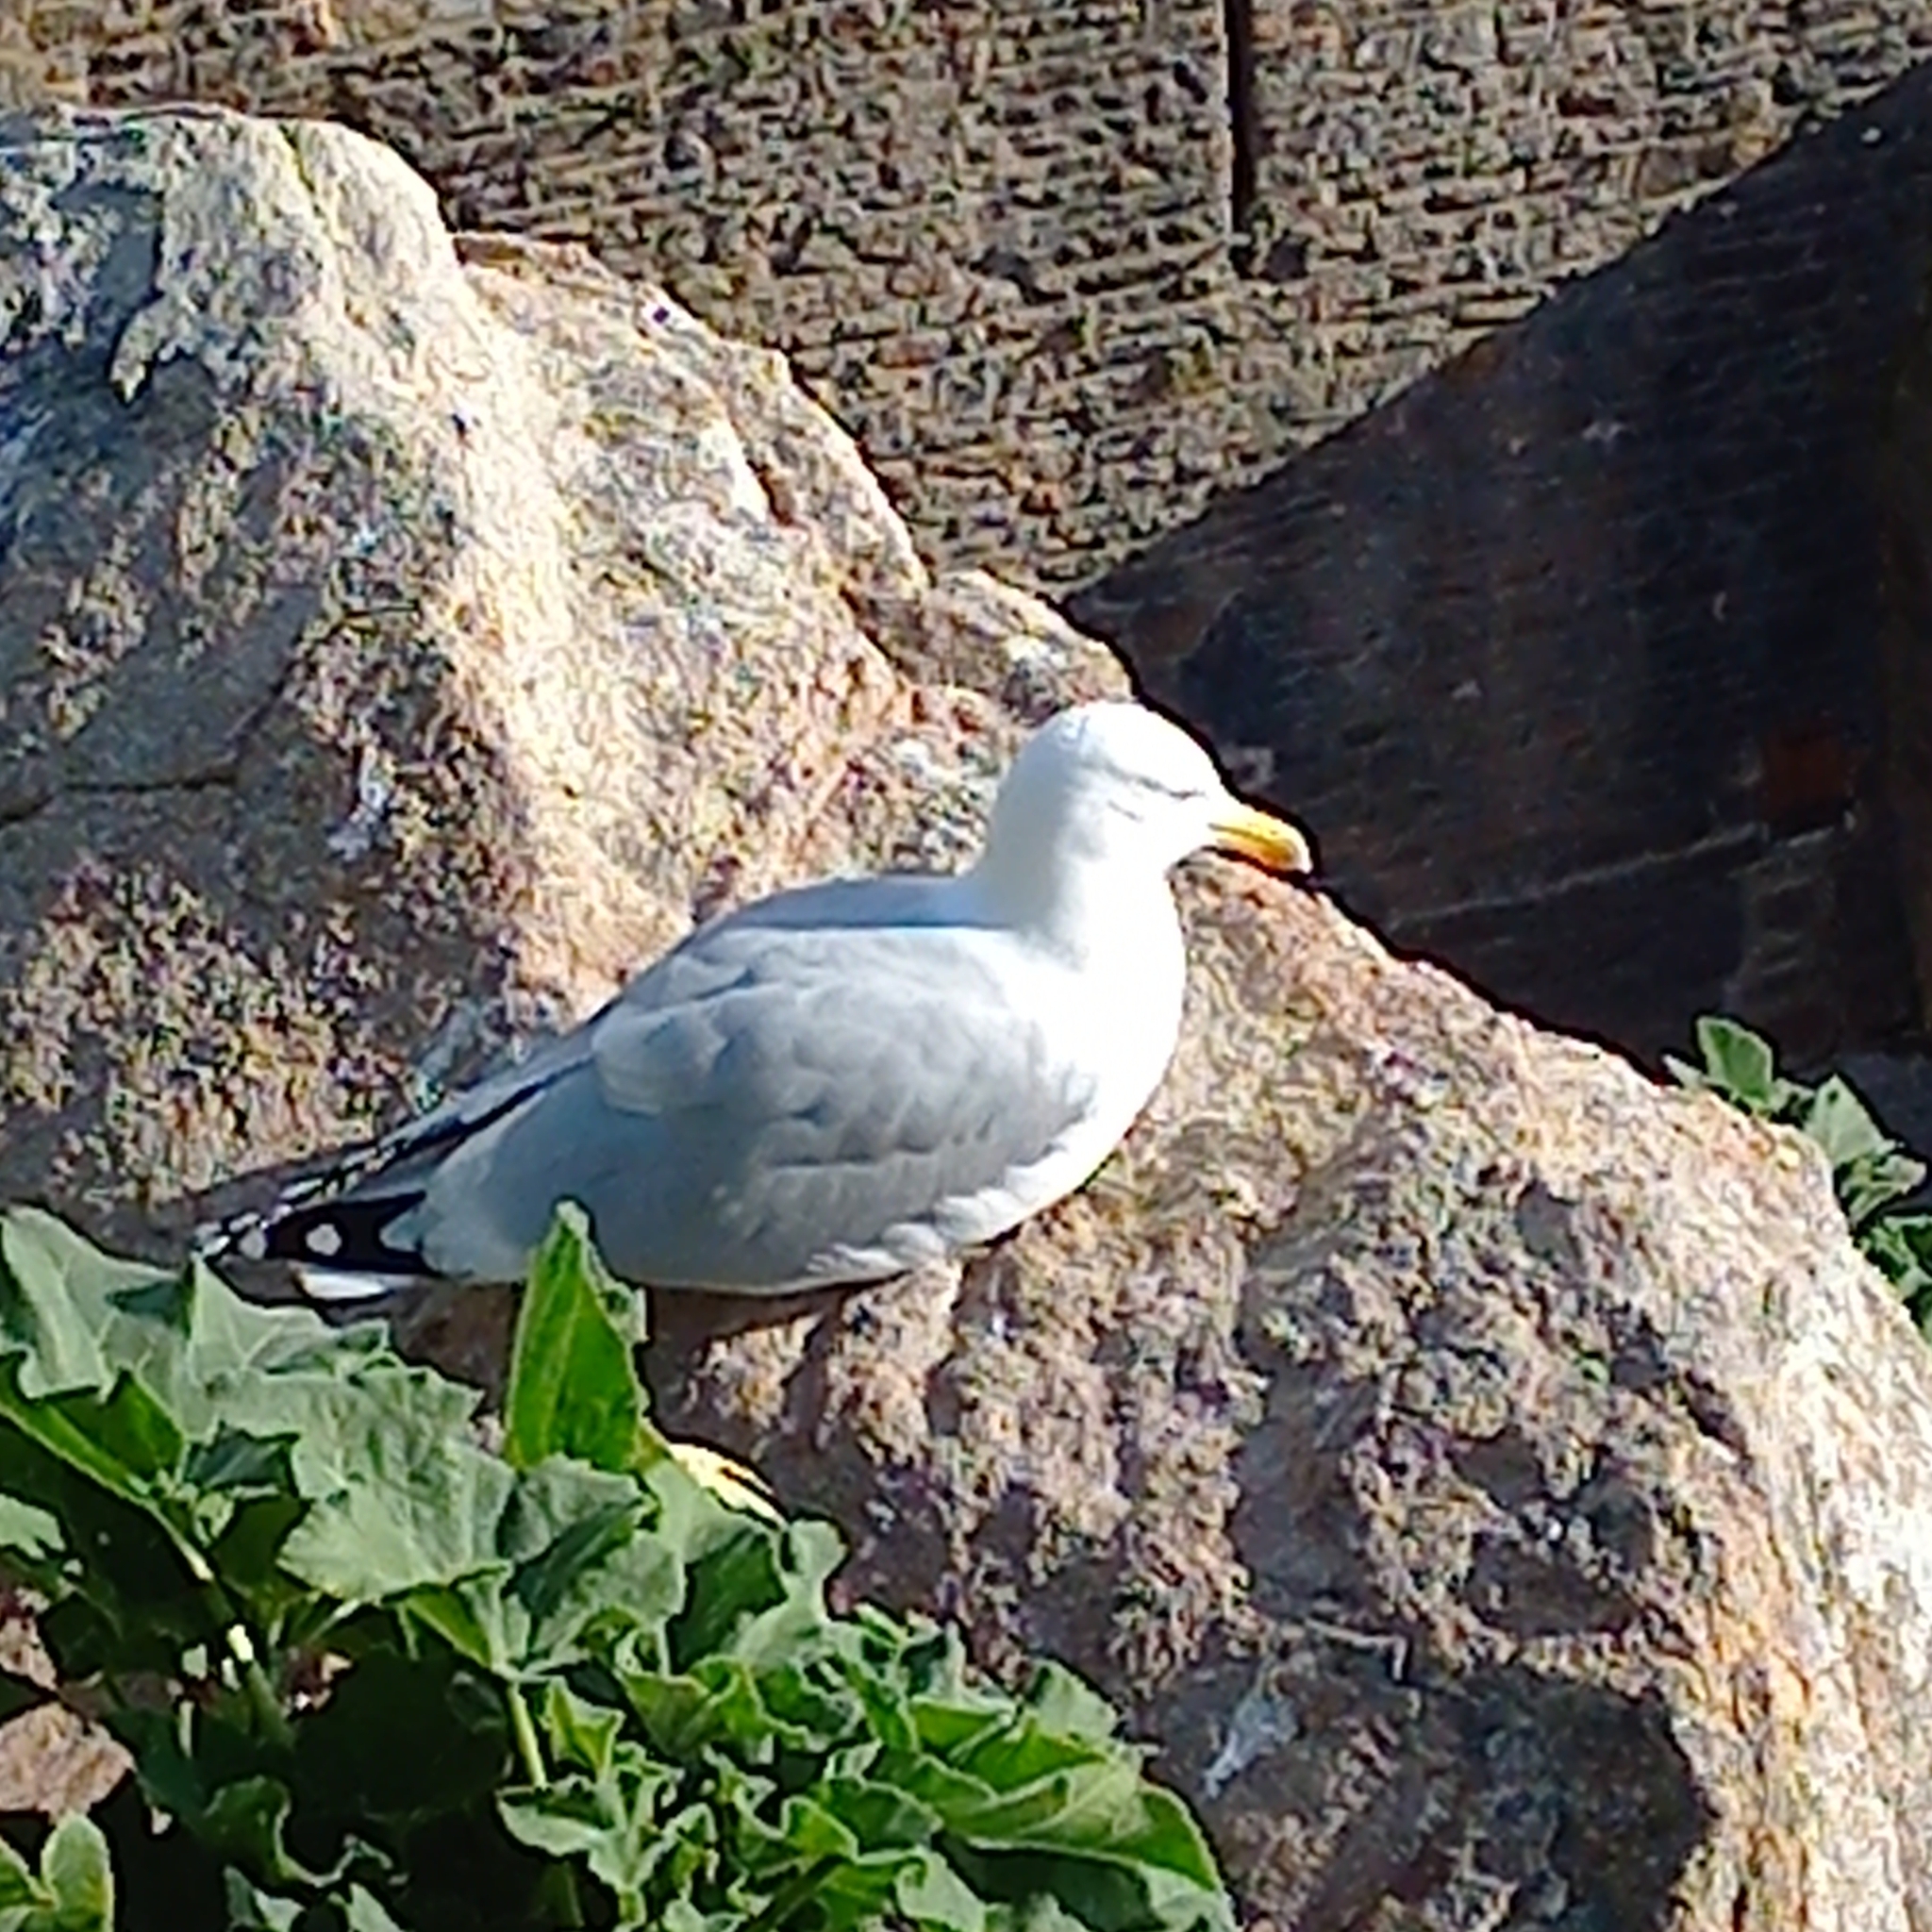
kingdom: Animalia
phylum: Chordata
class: Aves
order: Charadriiformes
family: Laridae
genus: Larus
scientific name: Larus argentatus
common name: Herring gull
